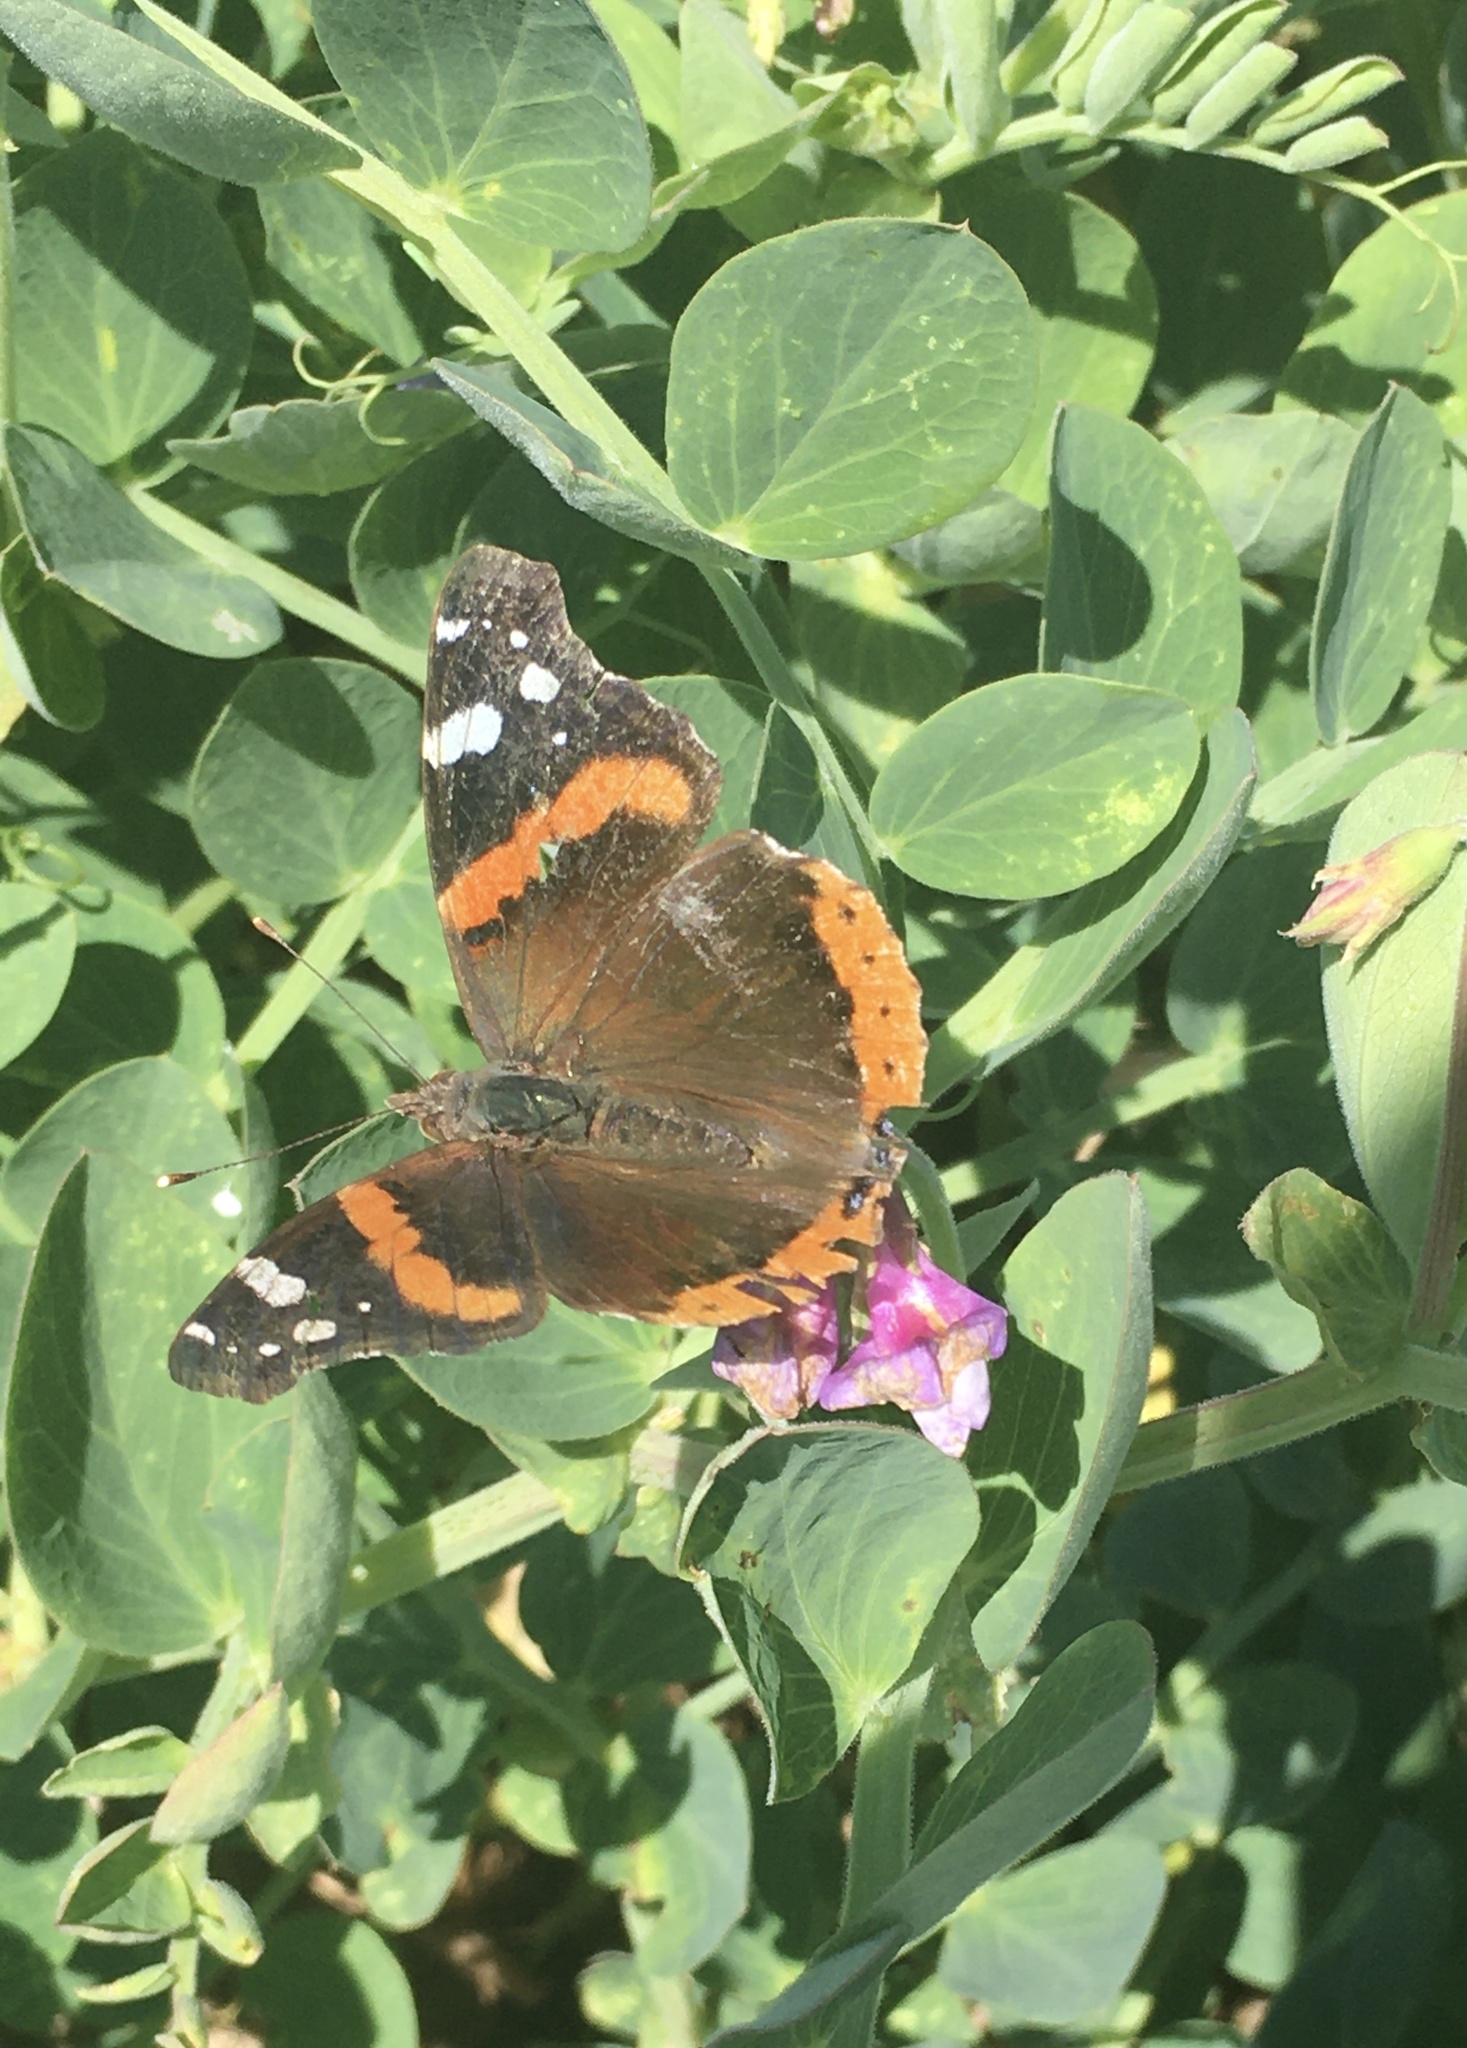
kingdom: Animalia
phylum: Arthropoda
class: Insecta
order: Lepidoptera
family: Nymphalidae
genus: Vanessa
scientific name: Vanessa atalanta
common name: Red admiral
